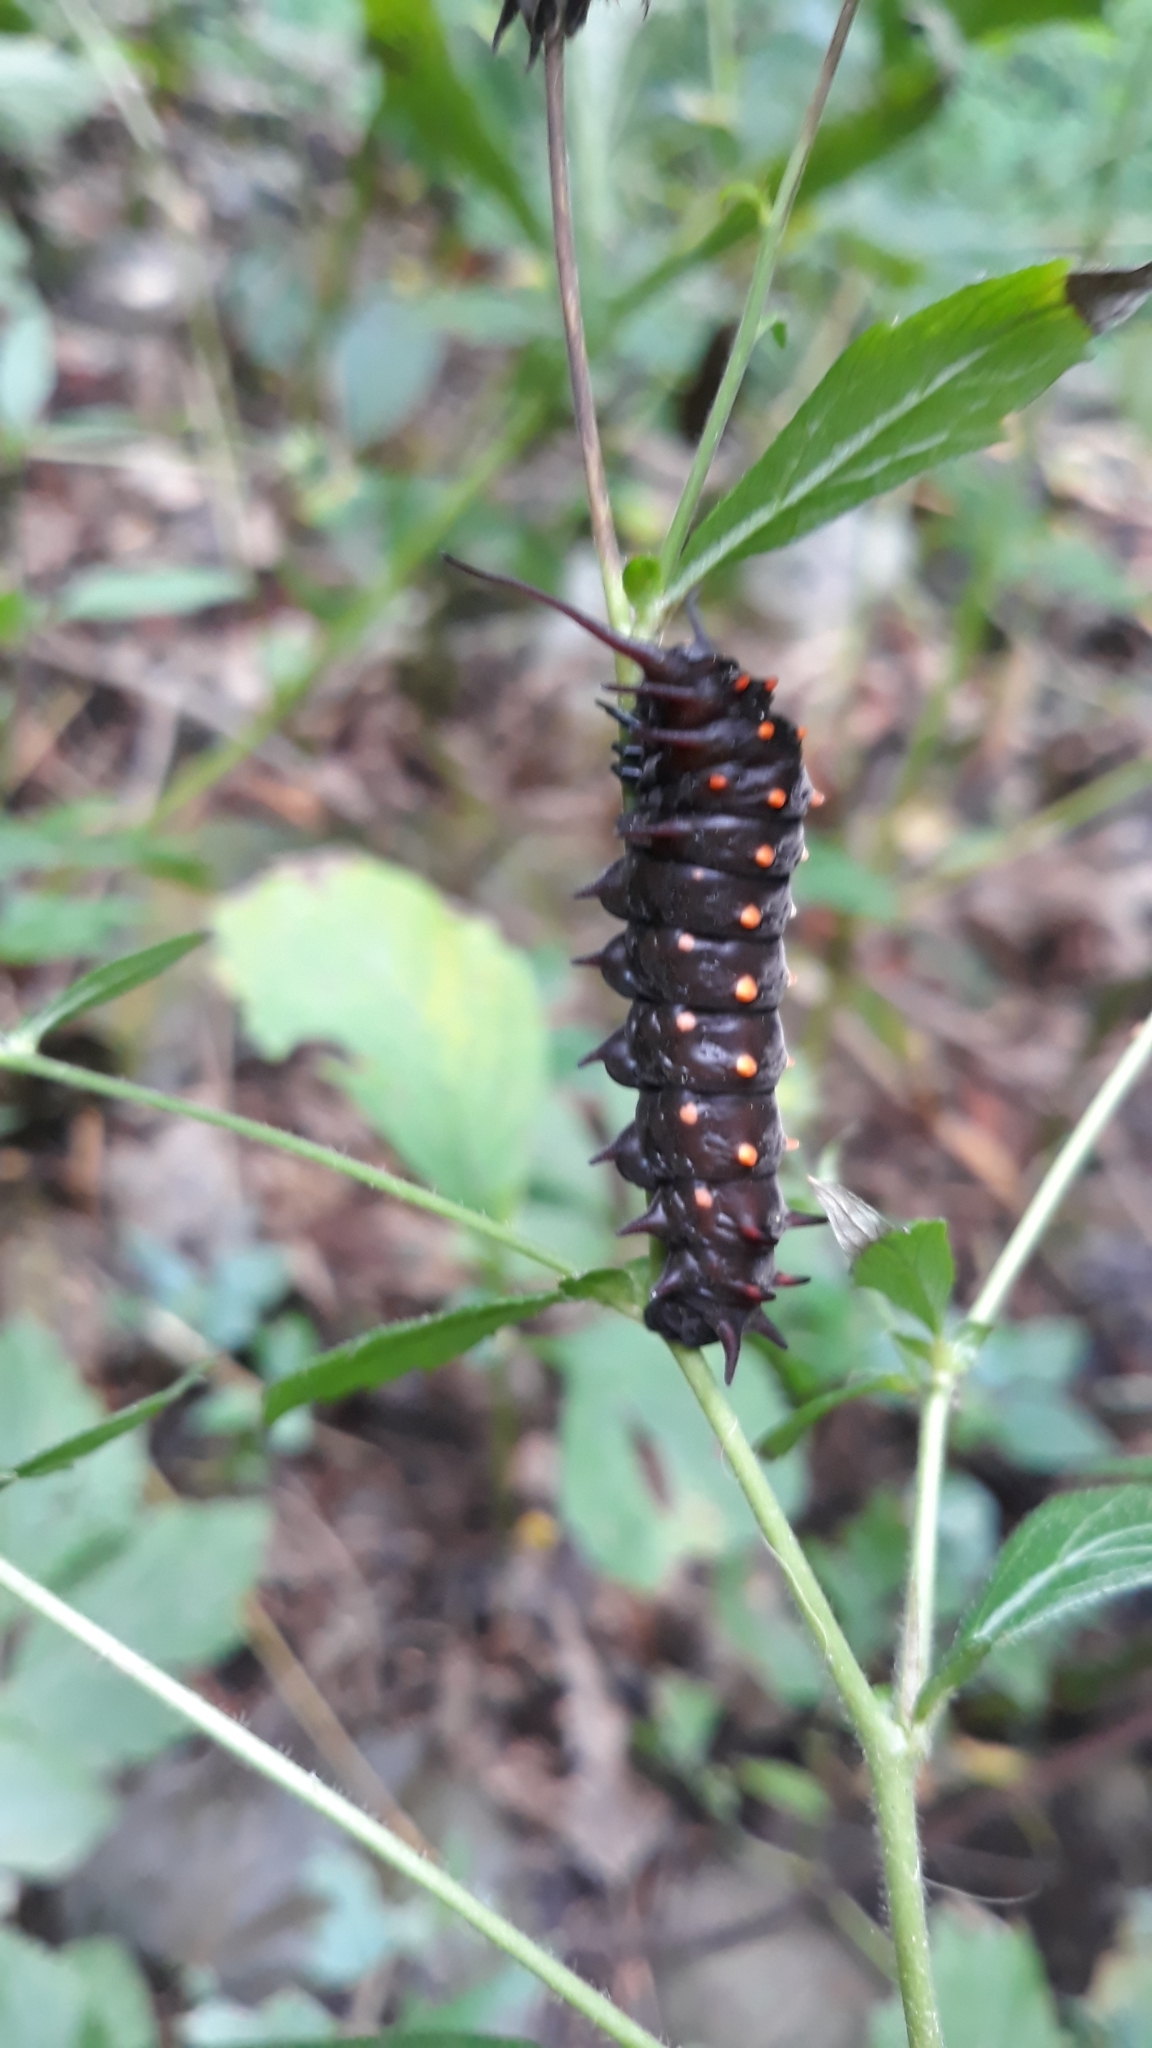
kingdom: Animalia
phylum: Arthropoda
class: Insecta
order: Lepidoptera
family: Papilionidae
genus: Battus
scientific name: Battus philenor
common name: Pipevine swallowtail
